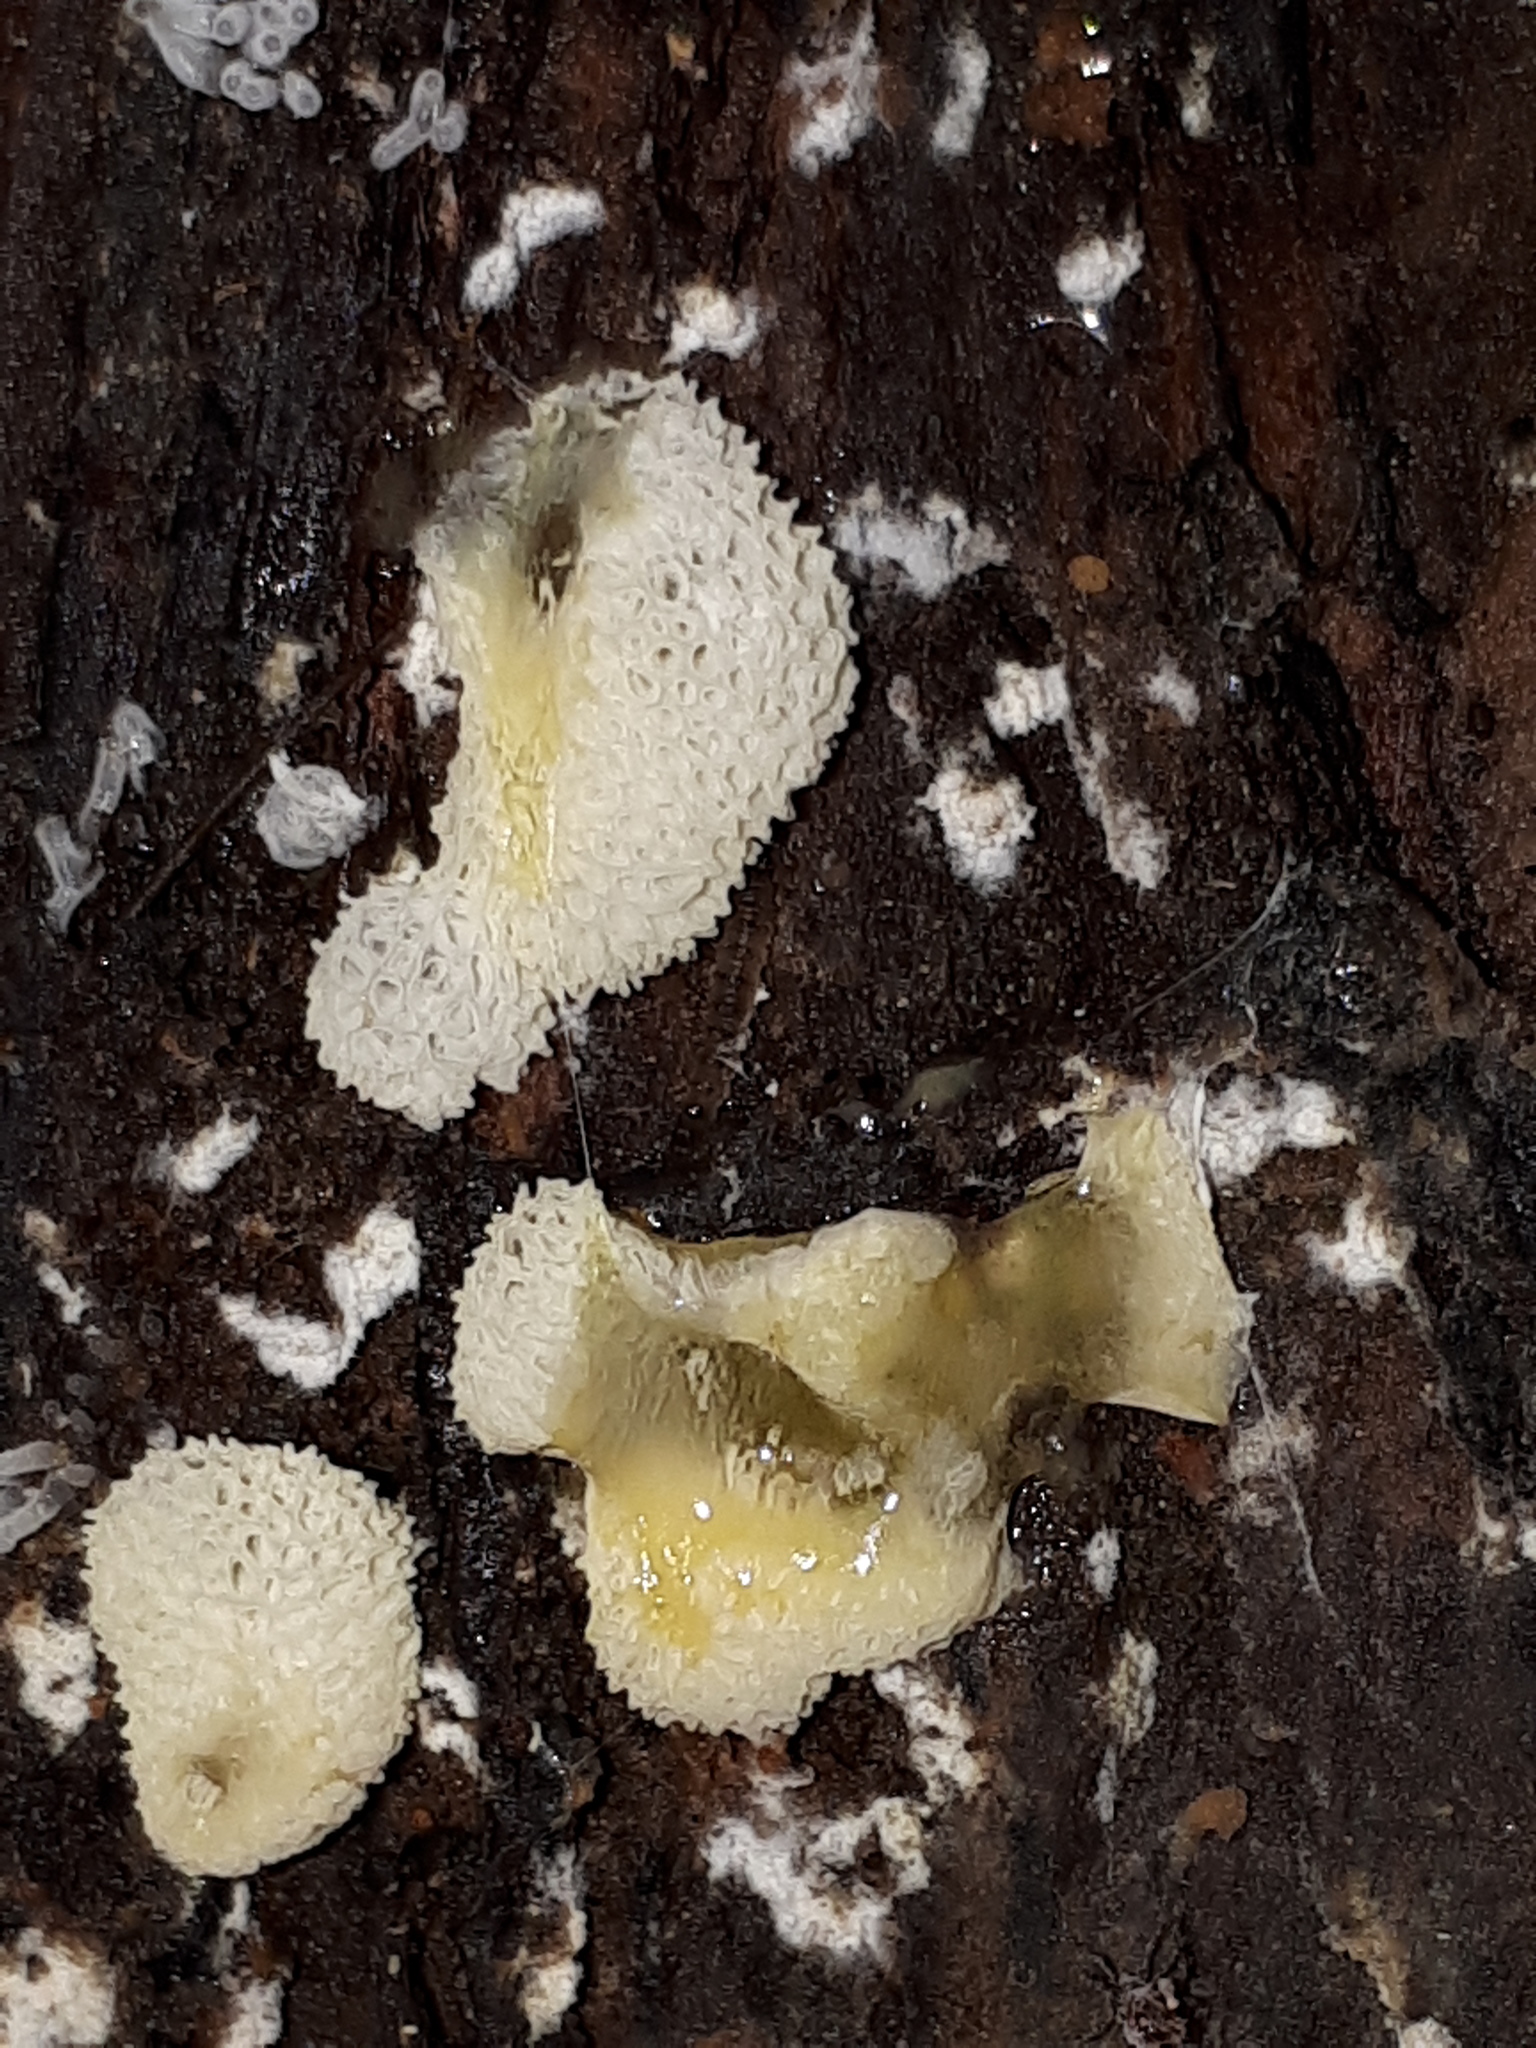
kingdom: Protozoa
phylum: Mycetozoa
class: Protosteliomycetes
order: Ceratiomyxales
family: Ceratiomyxaceae
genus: Ceratiomyxa
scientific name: Ceratiomyxa fruticulosa
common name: Honeycomb coral slime mold
